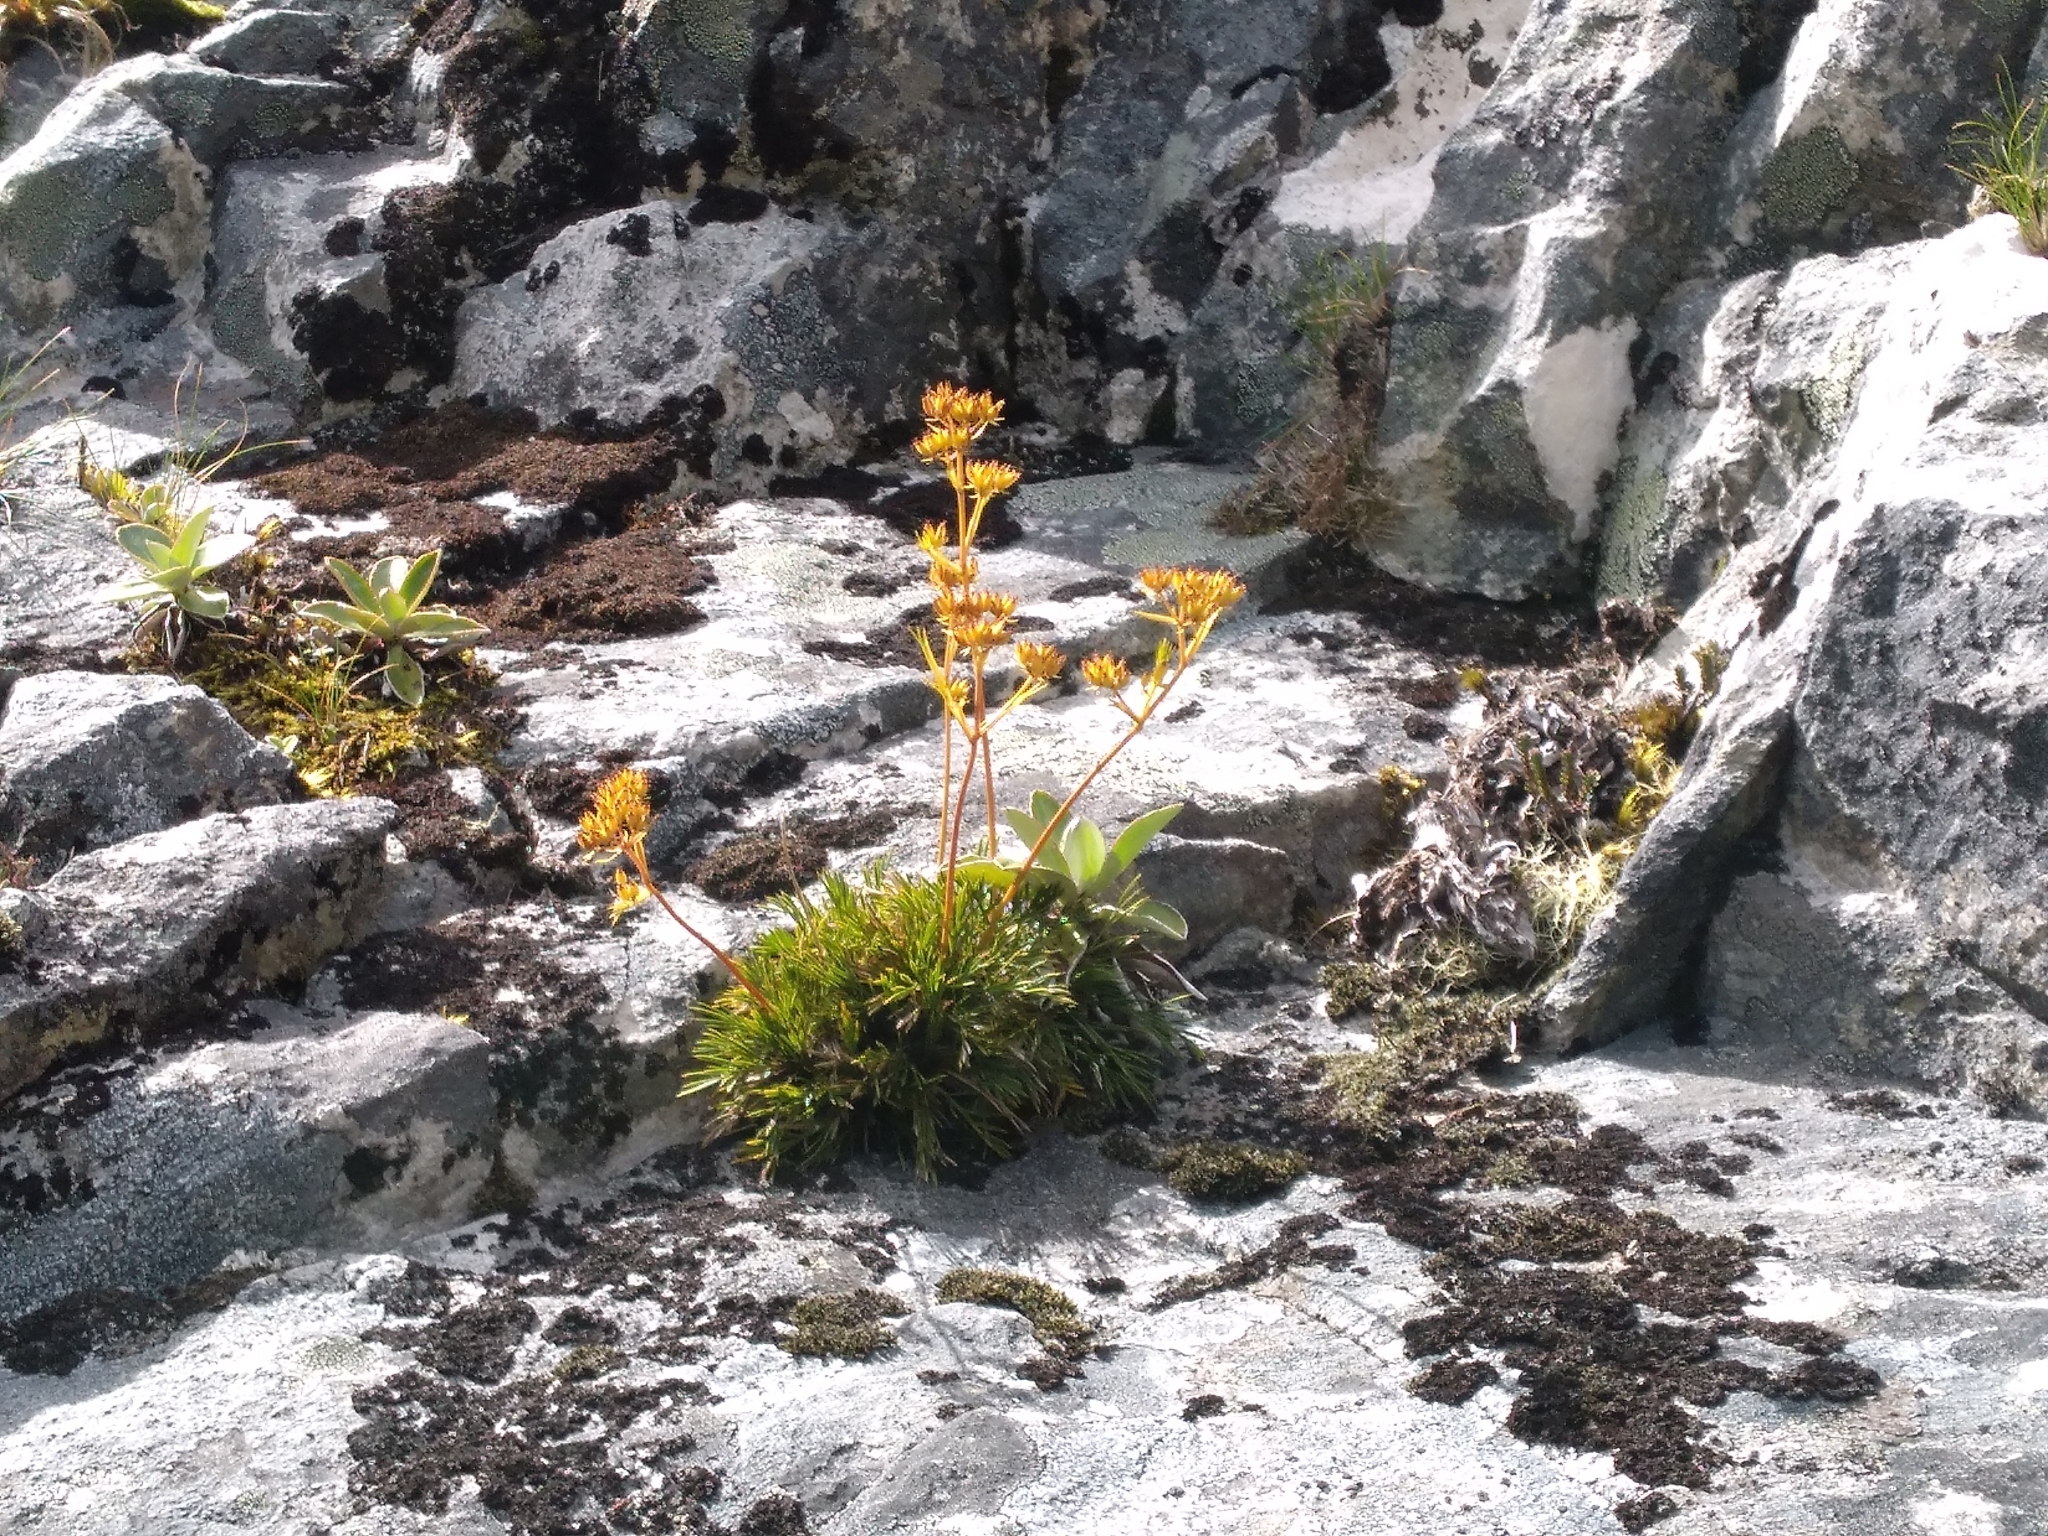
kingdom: Plantae
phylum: Tracheophyta
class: Magnoliopsida
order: Apiales
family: Apiaceae
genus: Aciphylla
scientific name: Aciphylla polita
